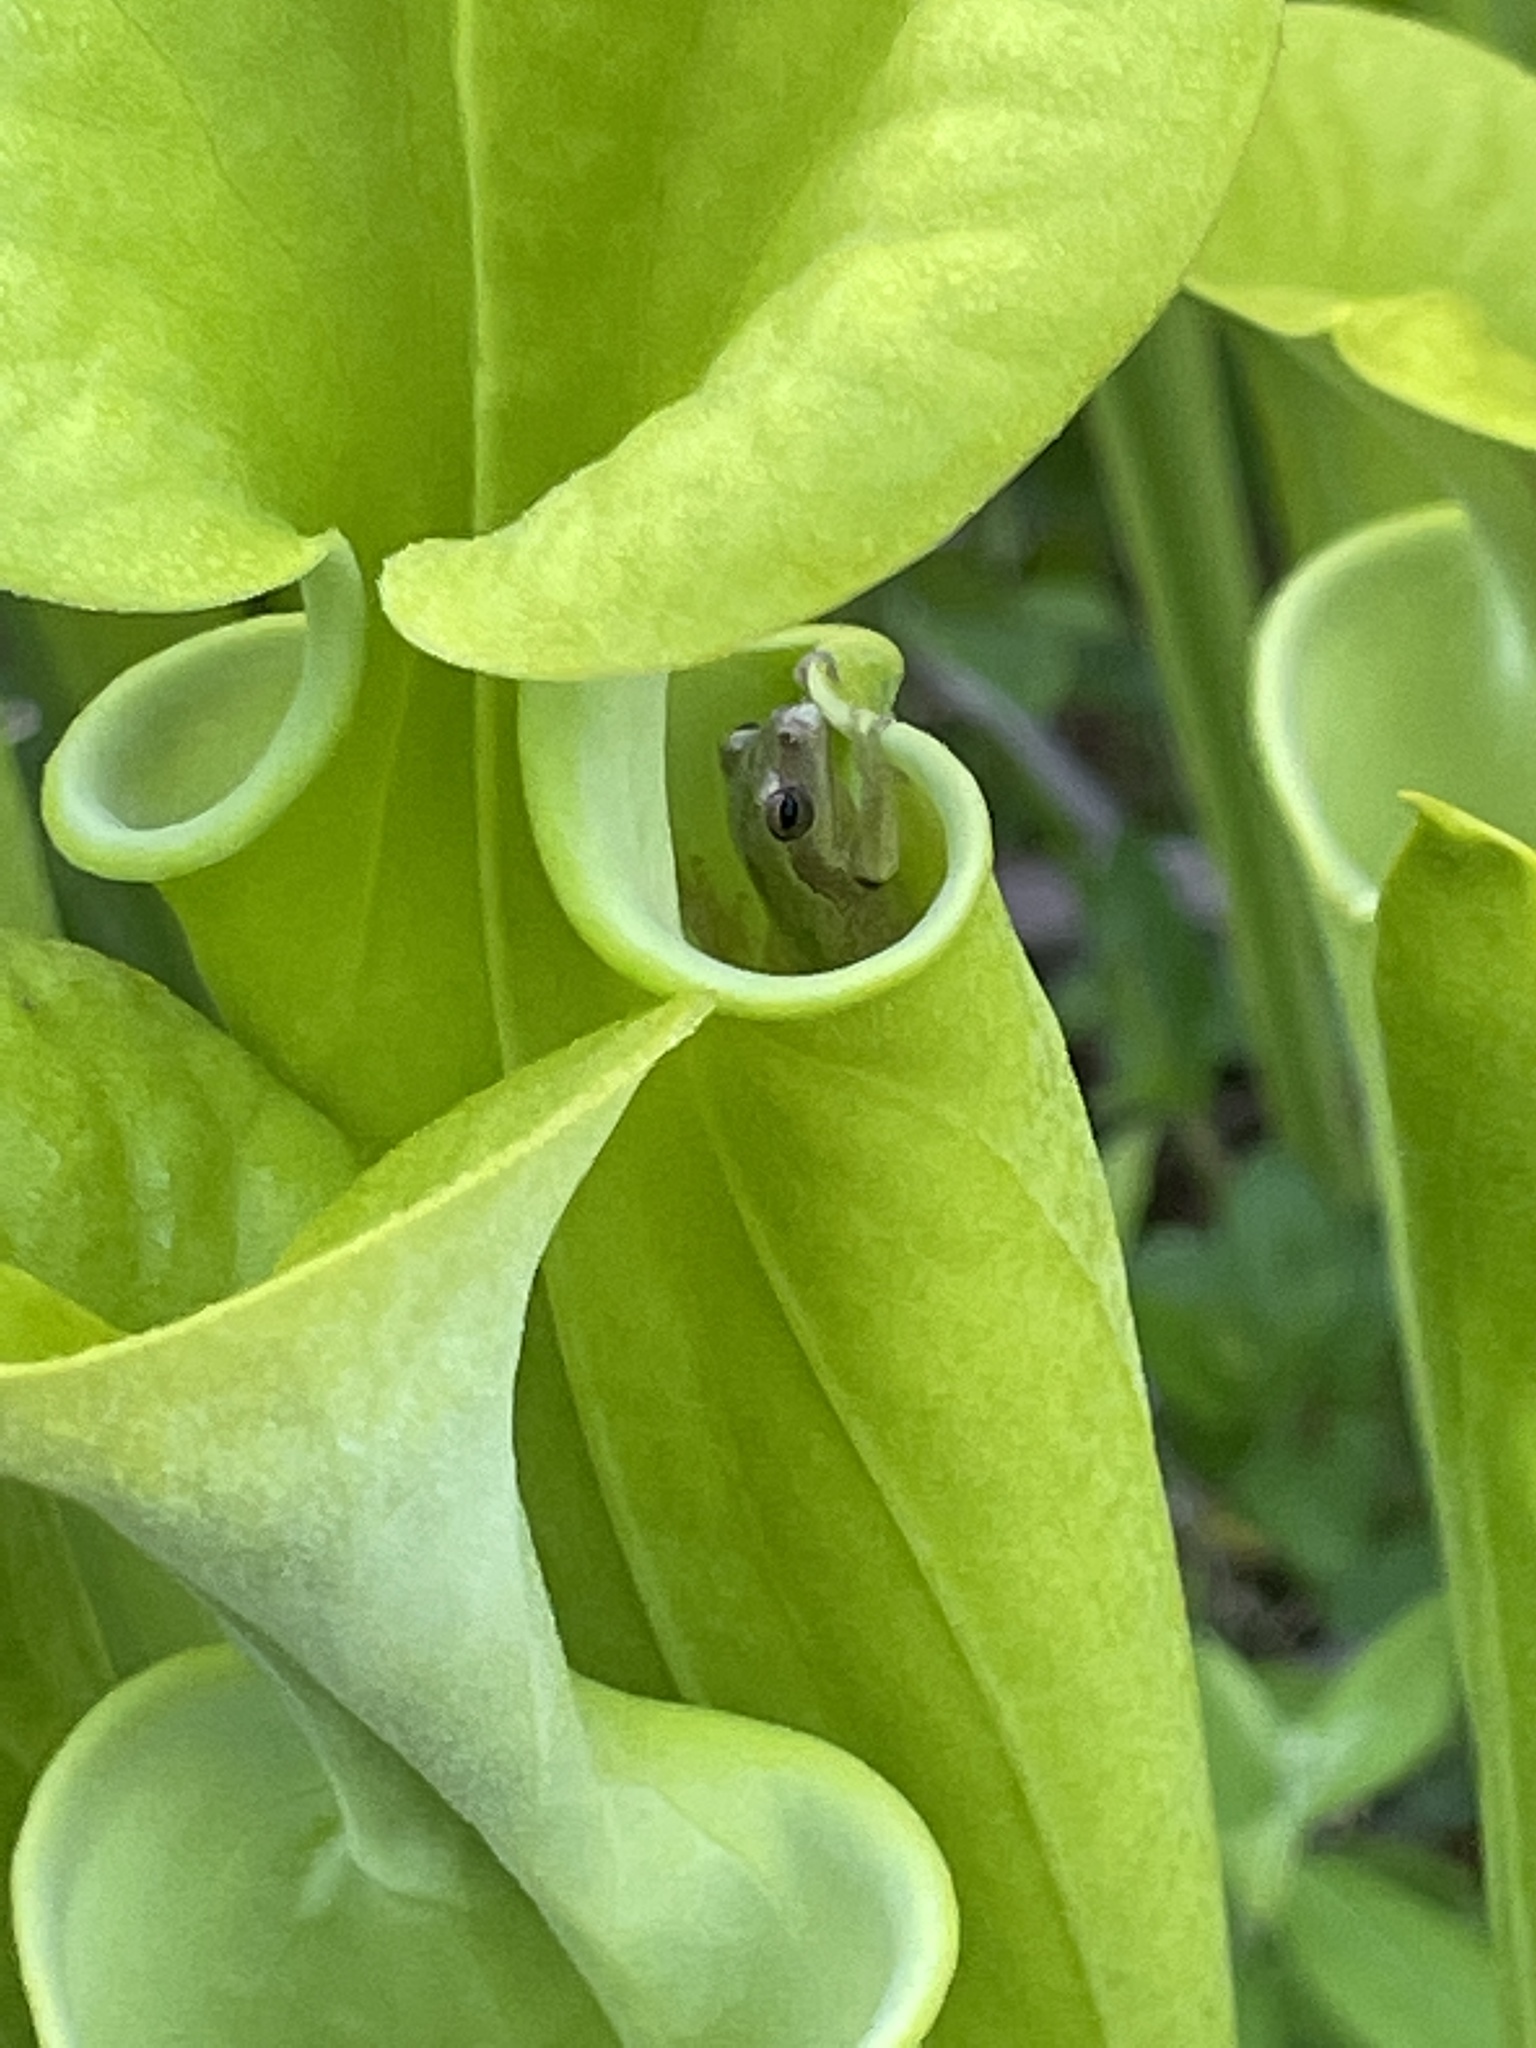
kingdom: Animalia
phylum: Chordata
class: Amphibia
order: Anura
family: Hylidae
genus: Hyla
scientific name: Hyla femoralis
